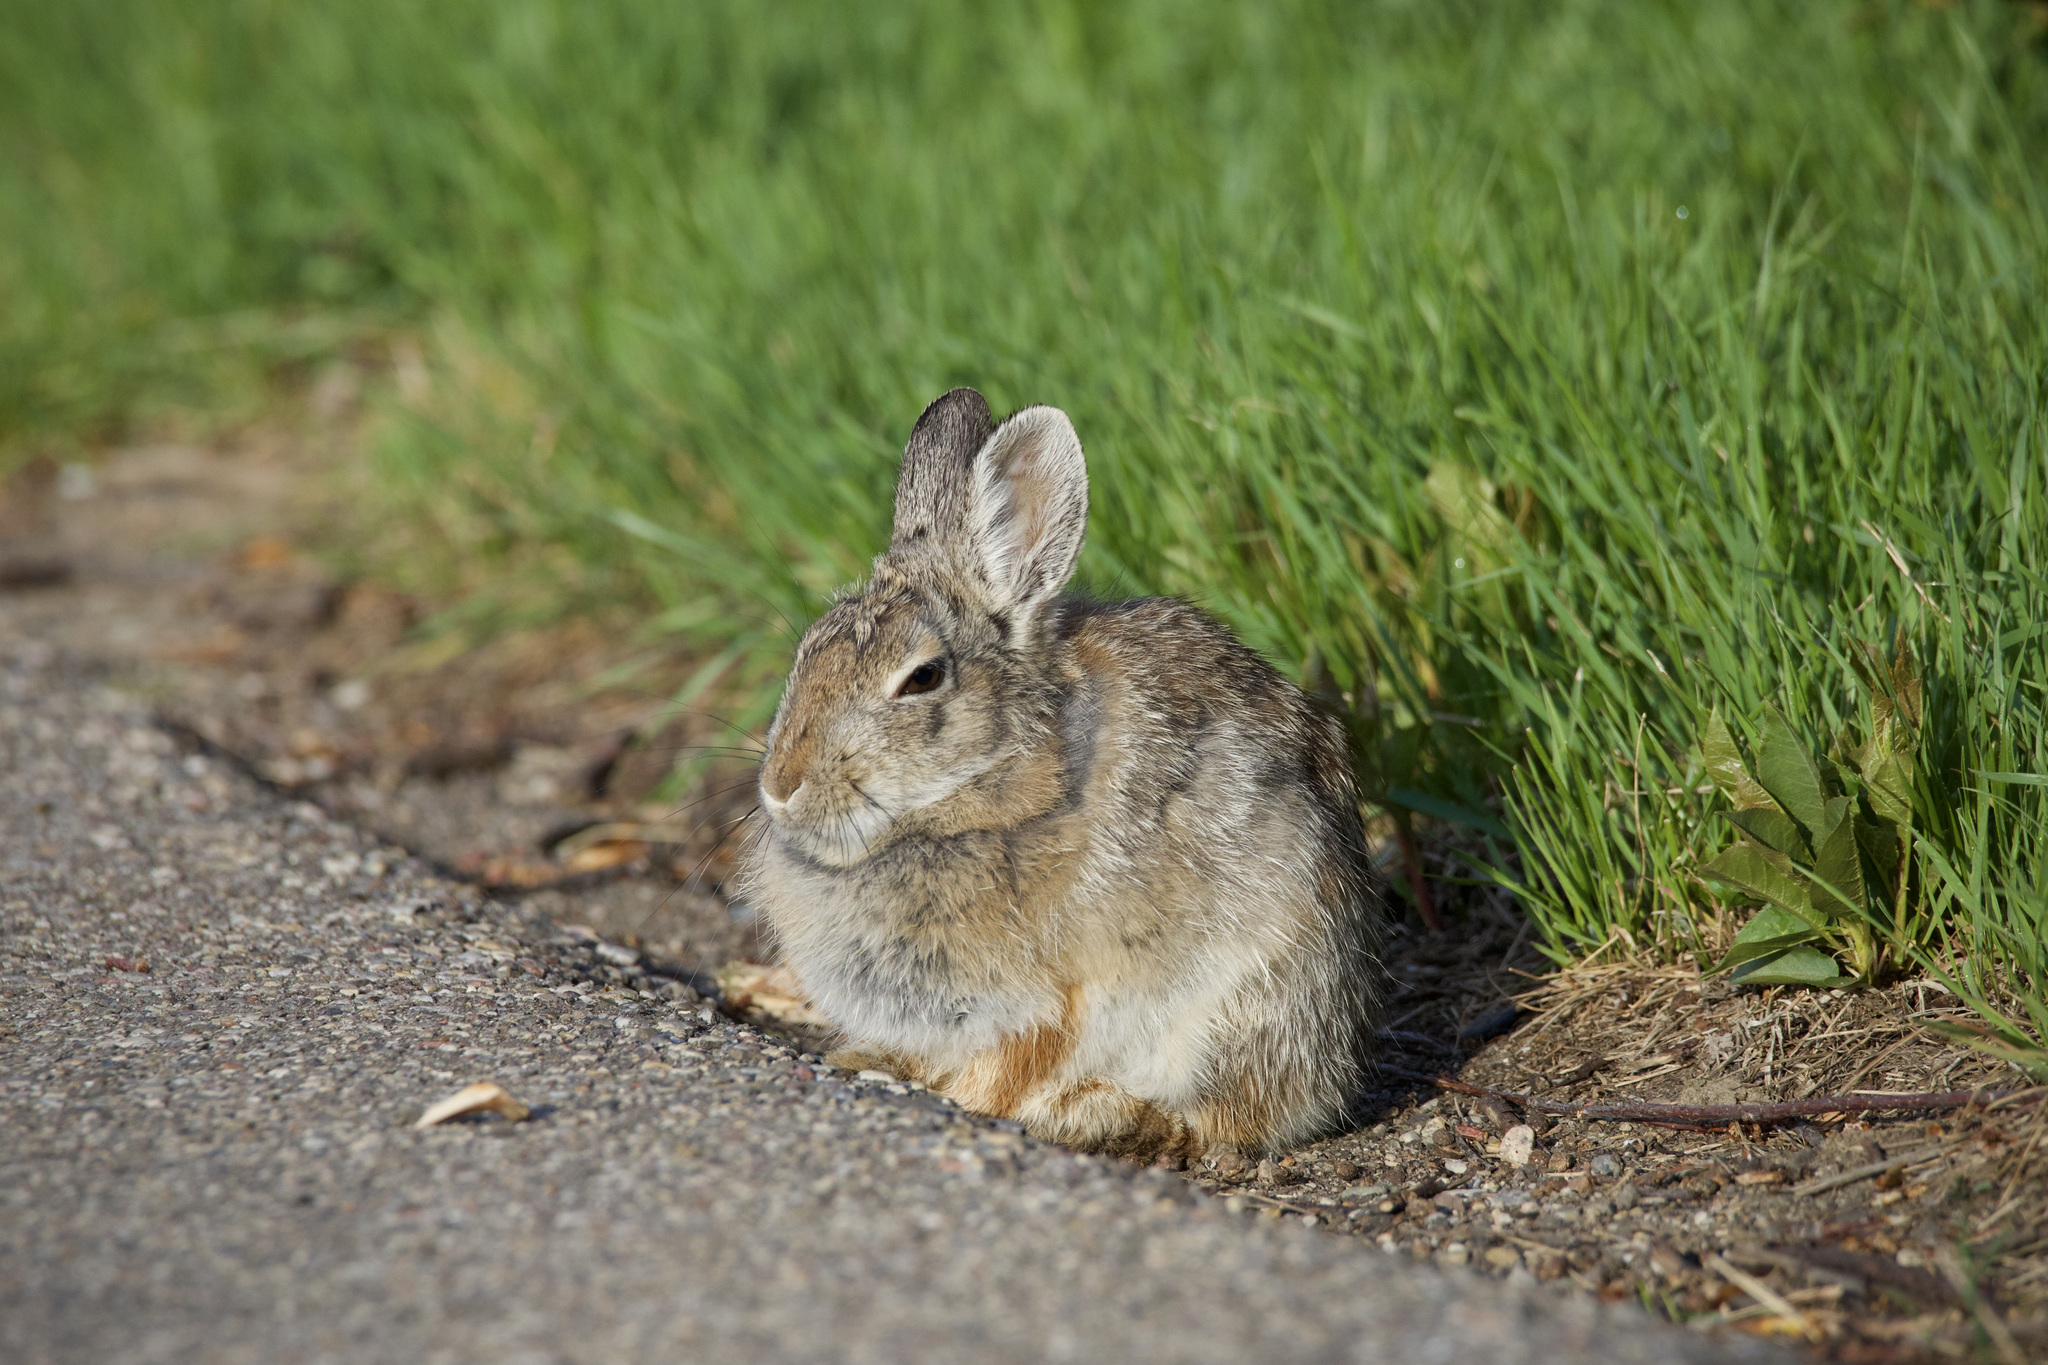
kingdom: Animalia
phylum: Chordata
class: Mammalia
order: Lagomorpha
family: Leporidae
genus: Sylvilagus
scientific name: Sylvilagus nuttallii
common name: Mountain cottontail
